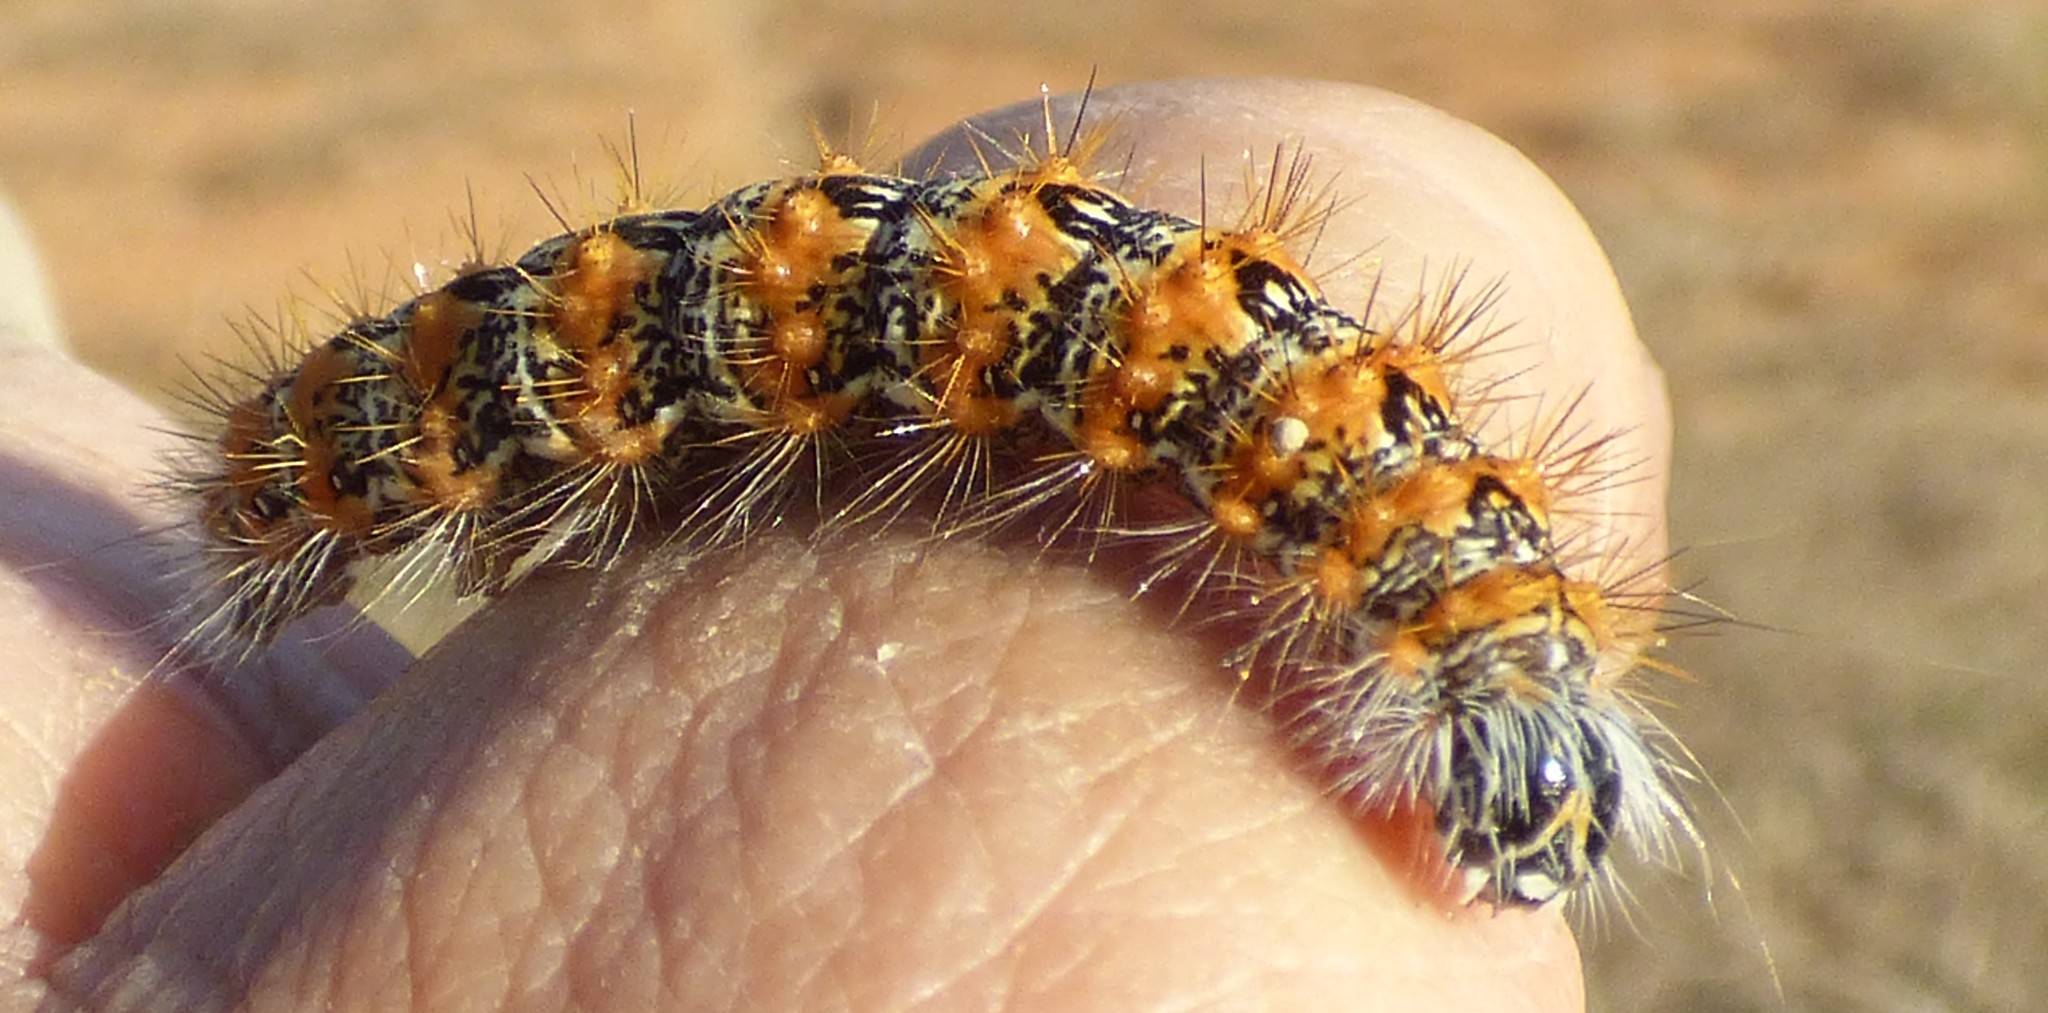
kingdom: Animalia
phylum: Arthropoda
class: Insecta
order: Lepidoptera
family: Noctuidae
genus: Acronicta
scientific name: Acronicta insularis
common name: Henry's marsh moth
